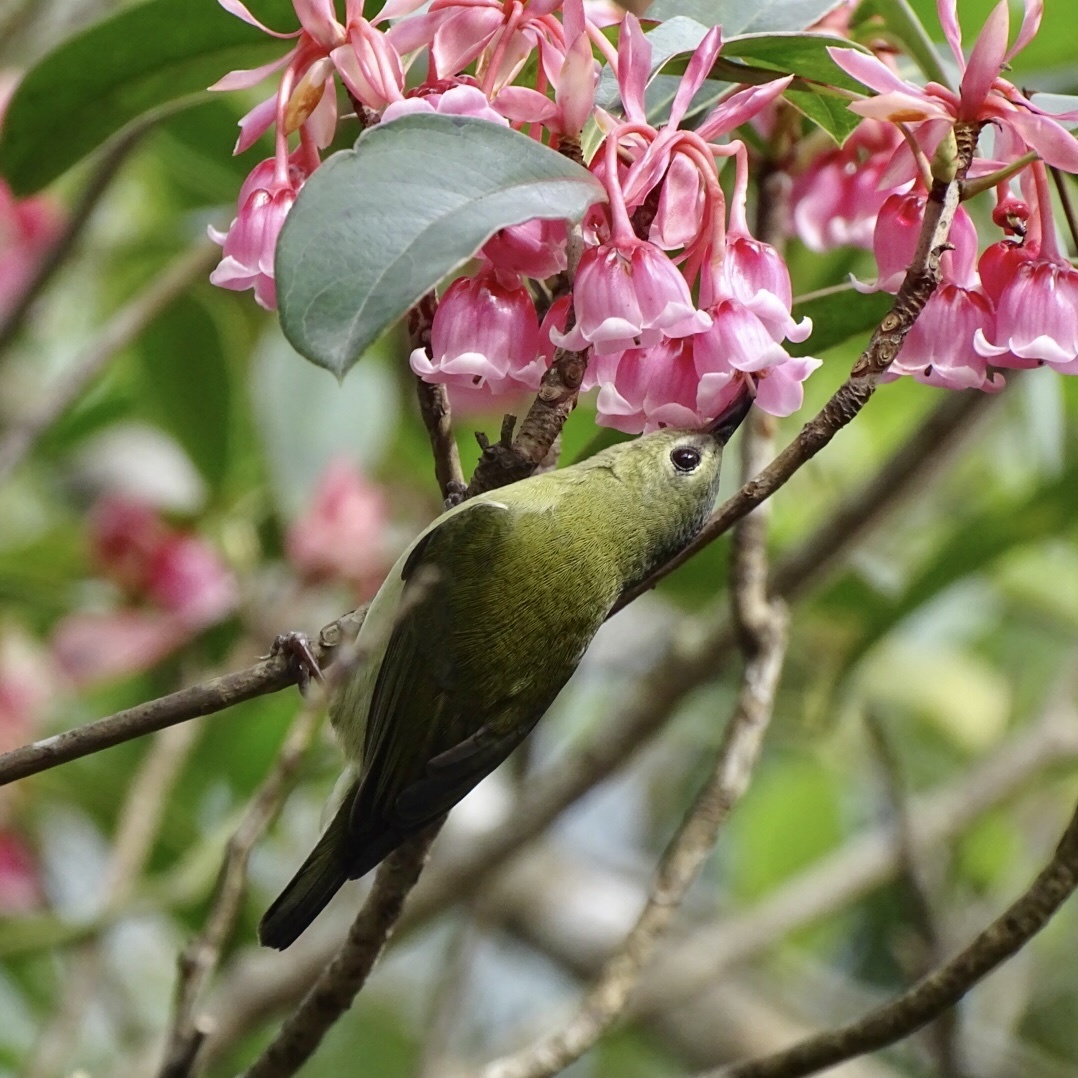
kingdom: Animalia
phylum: Chordata
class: Aves
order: Passeriformes
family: Nectariniidae
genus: Aethopyga
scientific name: Aethopyga christinae
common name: Fork-tailed sunbird
